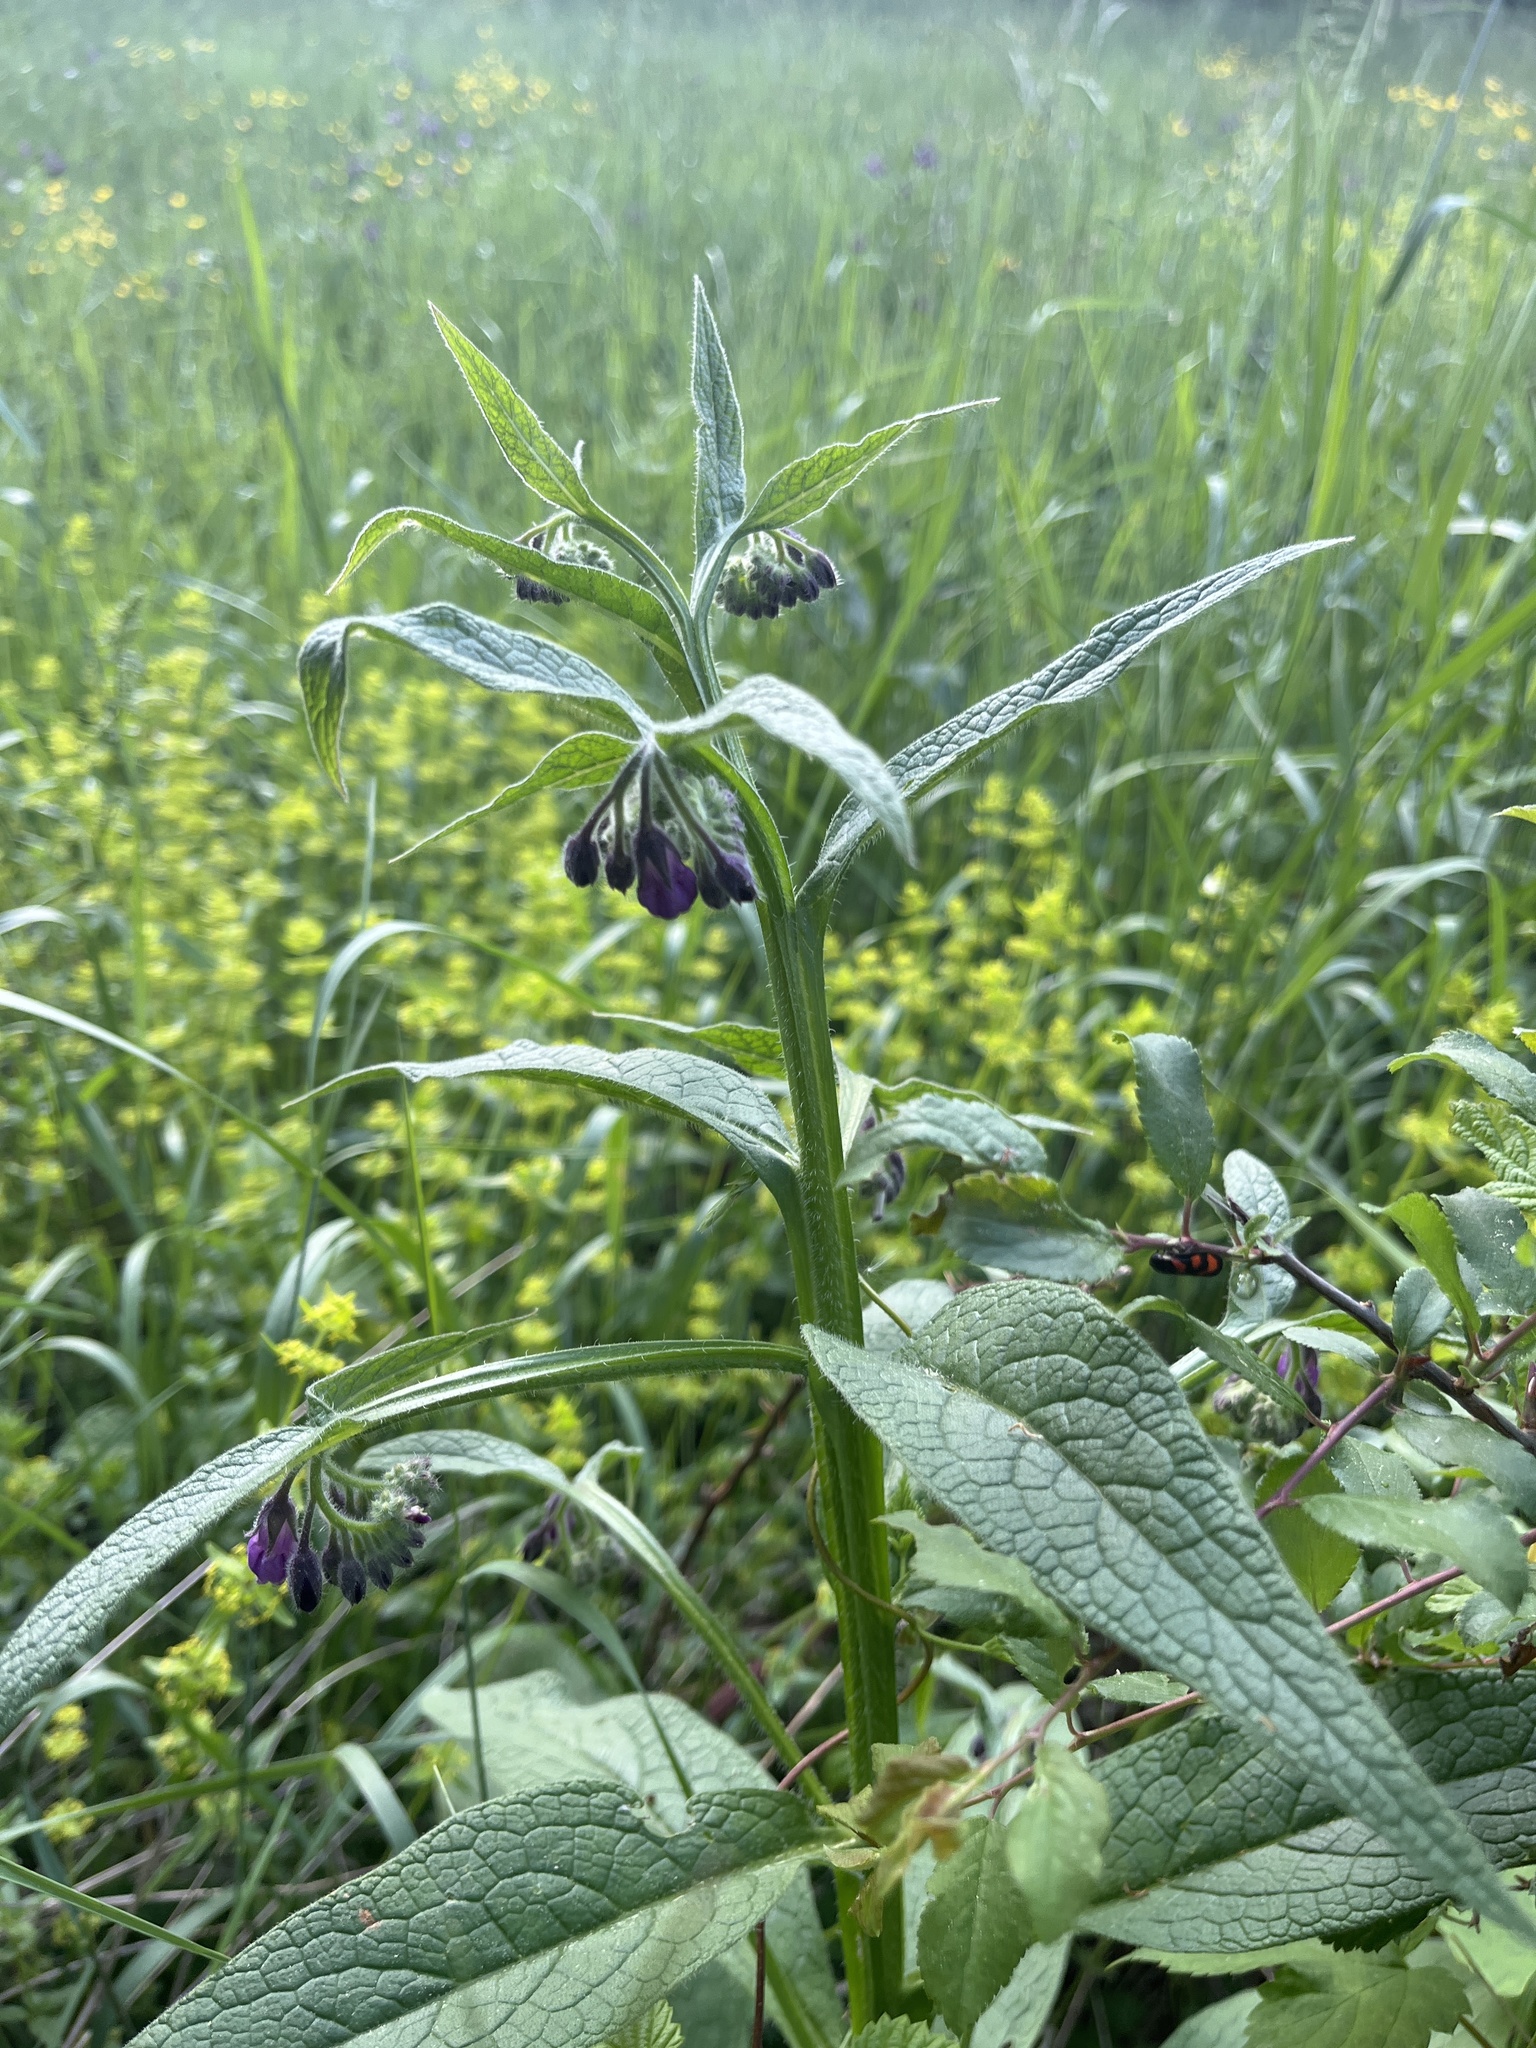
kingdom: Plantae
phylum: Tracheophyta
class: Magnoliopsida
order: Boraginales
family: Boraginaceae
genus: Symphytum
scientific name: Symphytum officinale
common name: Common comfrey
